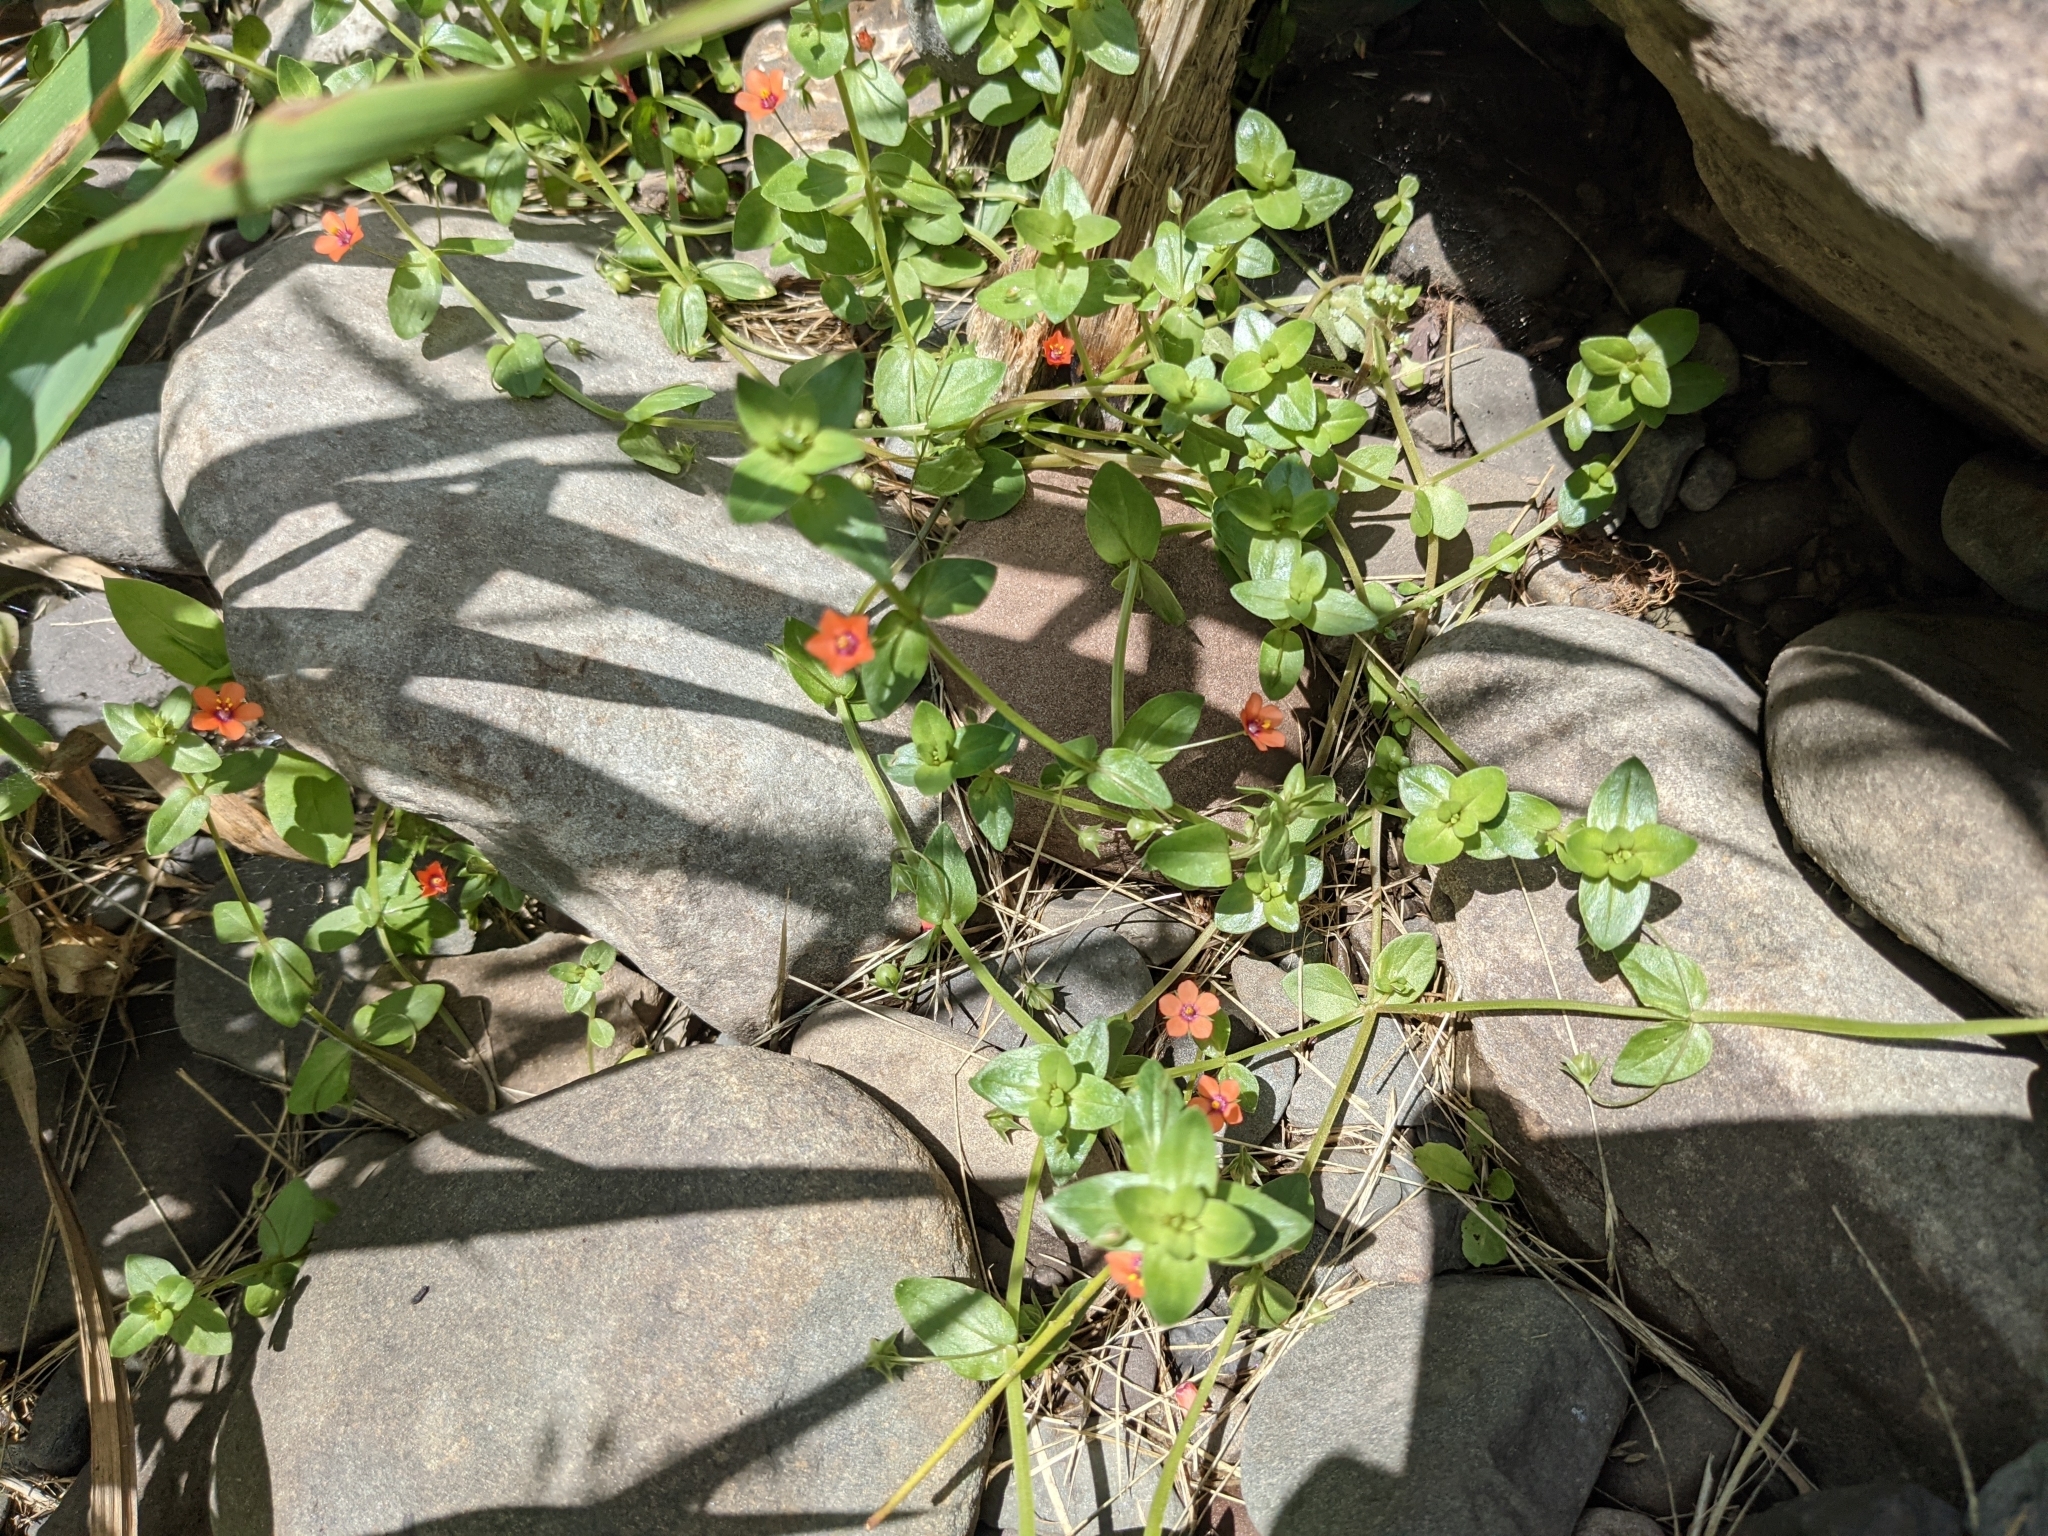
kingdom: Plantae
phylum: Tracheophyta
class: Magnoliopsida
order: Ericales
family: Primulaceae
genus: Lysimachia
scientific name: Lysimachia arvensis
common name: Scarlet pimpernel
